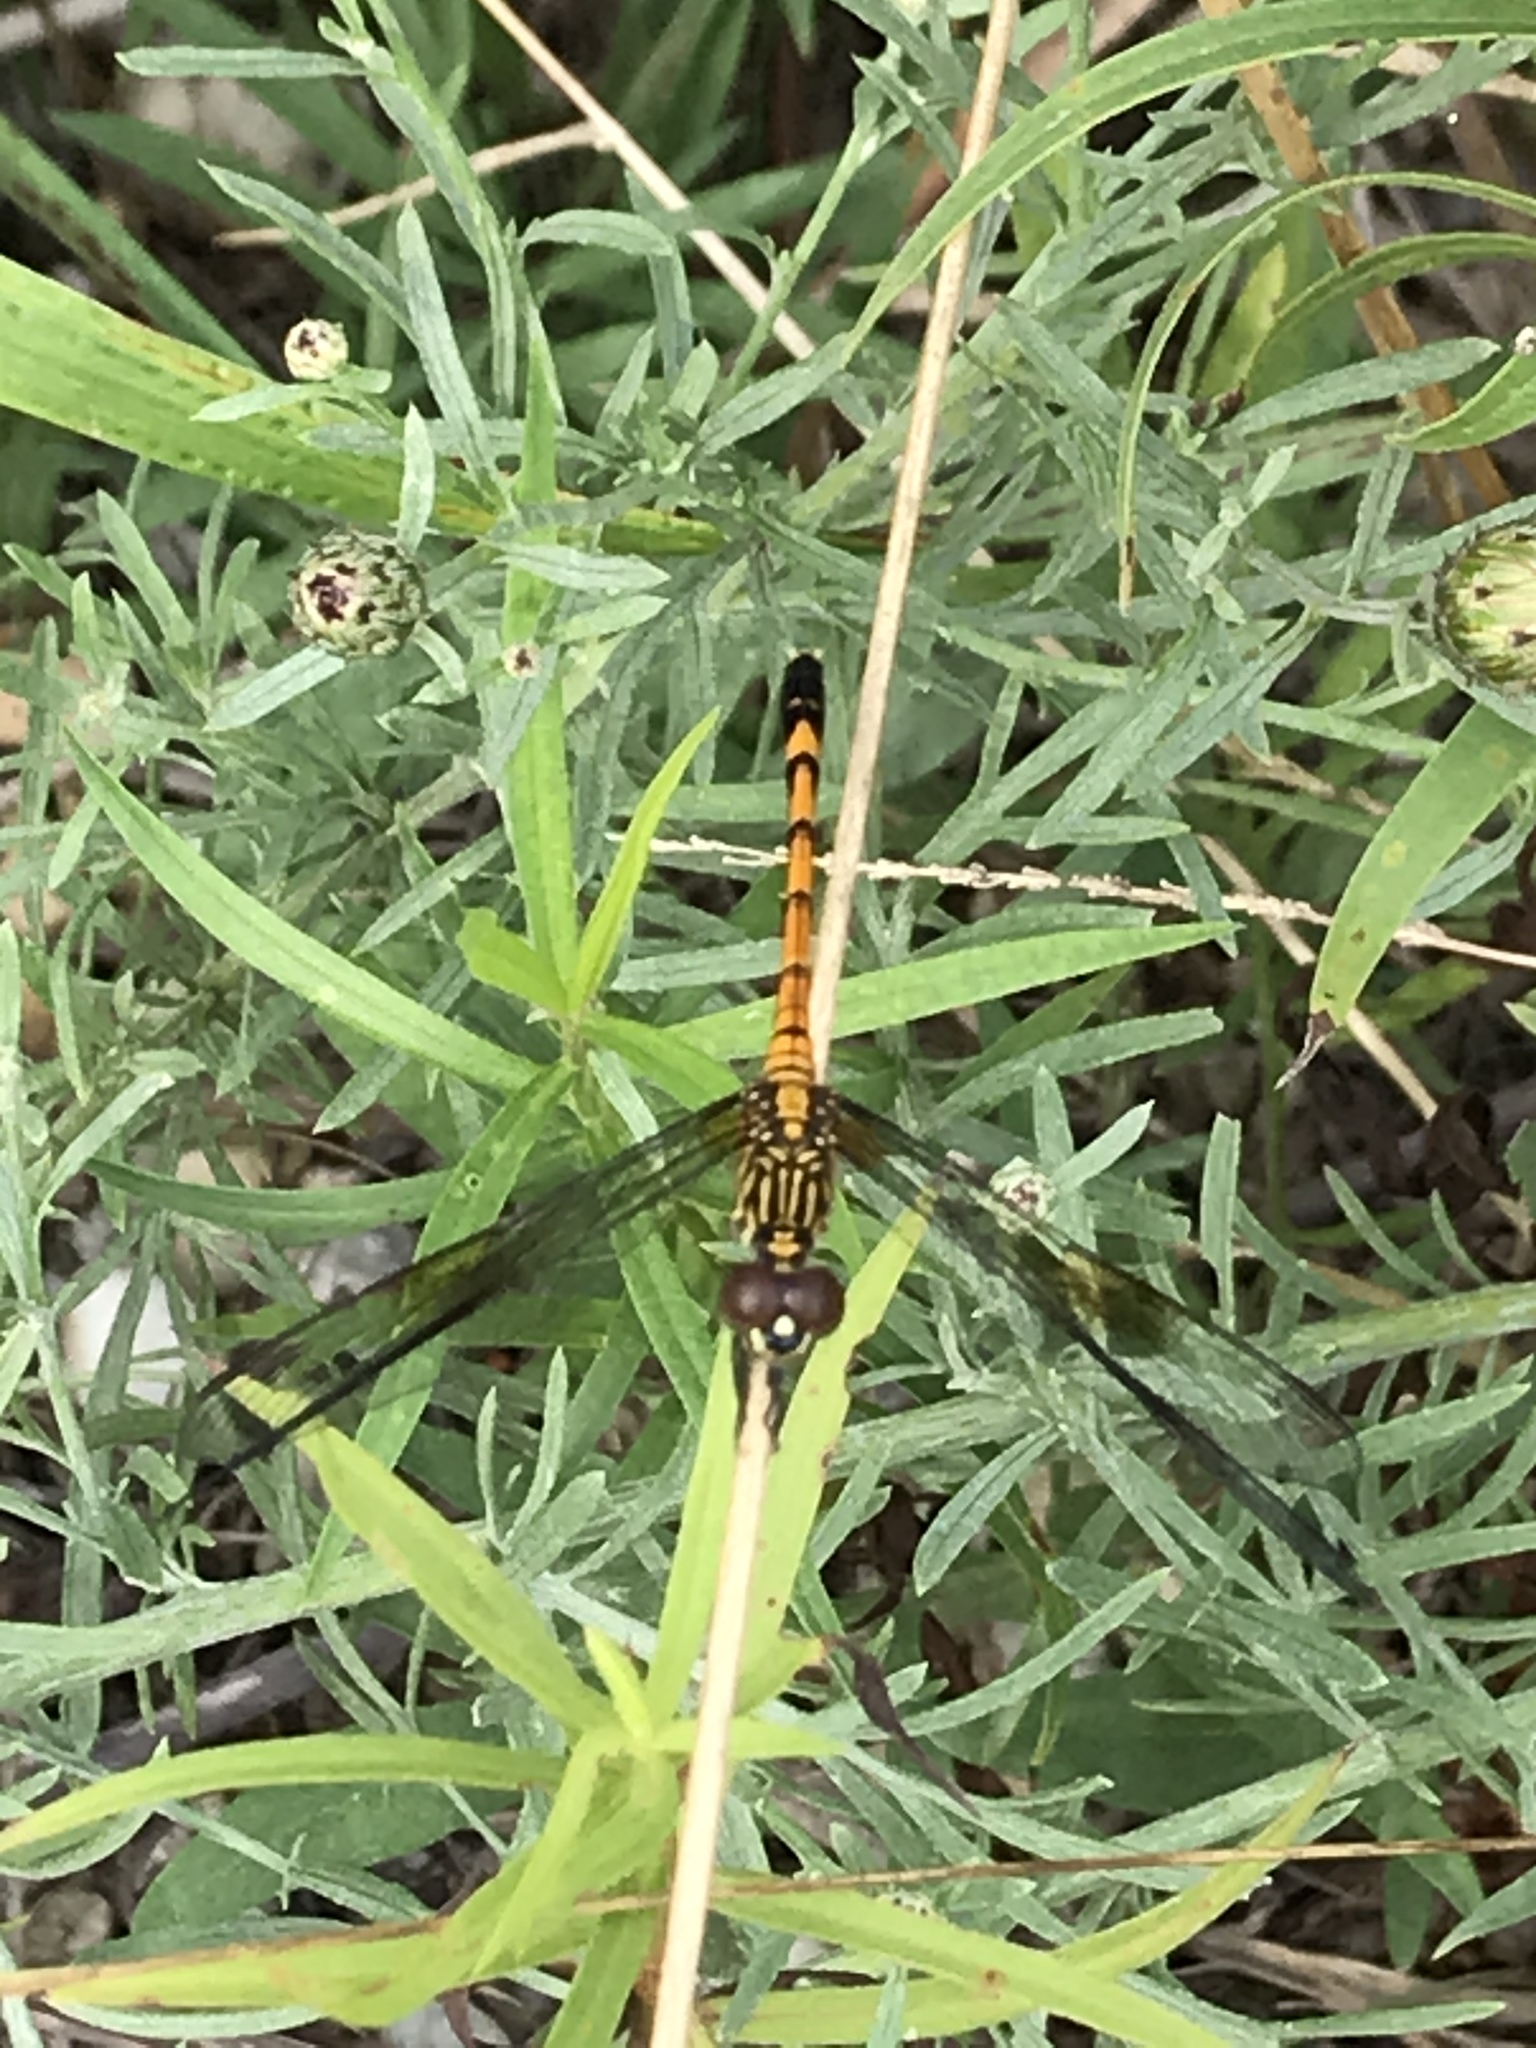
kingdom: Animalia
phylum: Arthropoda
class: Insecta
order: Odonata
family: Libellulidae
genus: Erythrodiplax
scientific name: Erythrodiplax berenice
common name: Seaside dragonlet
